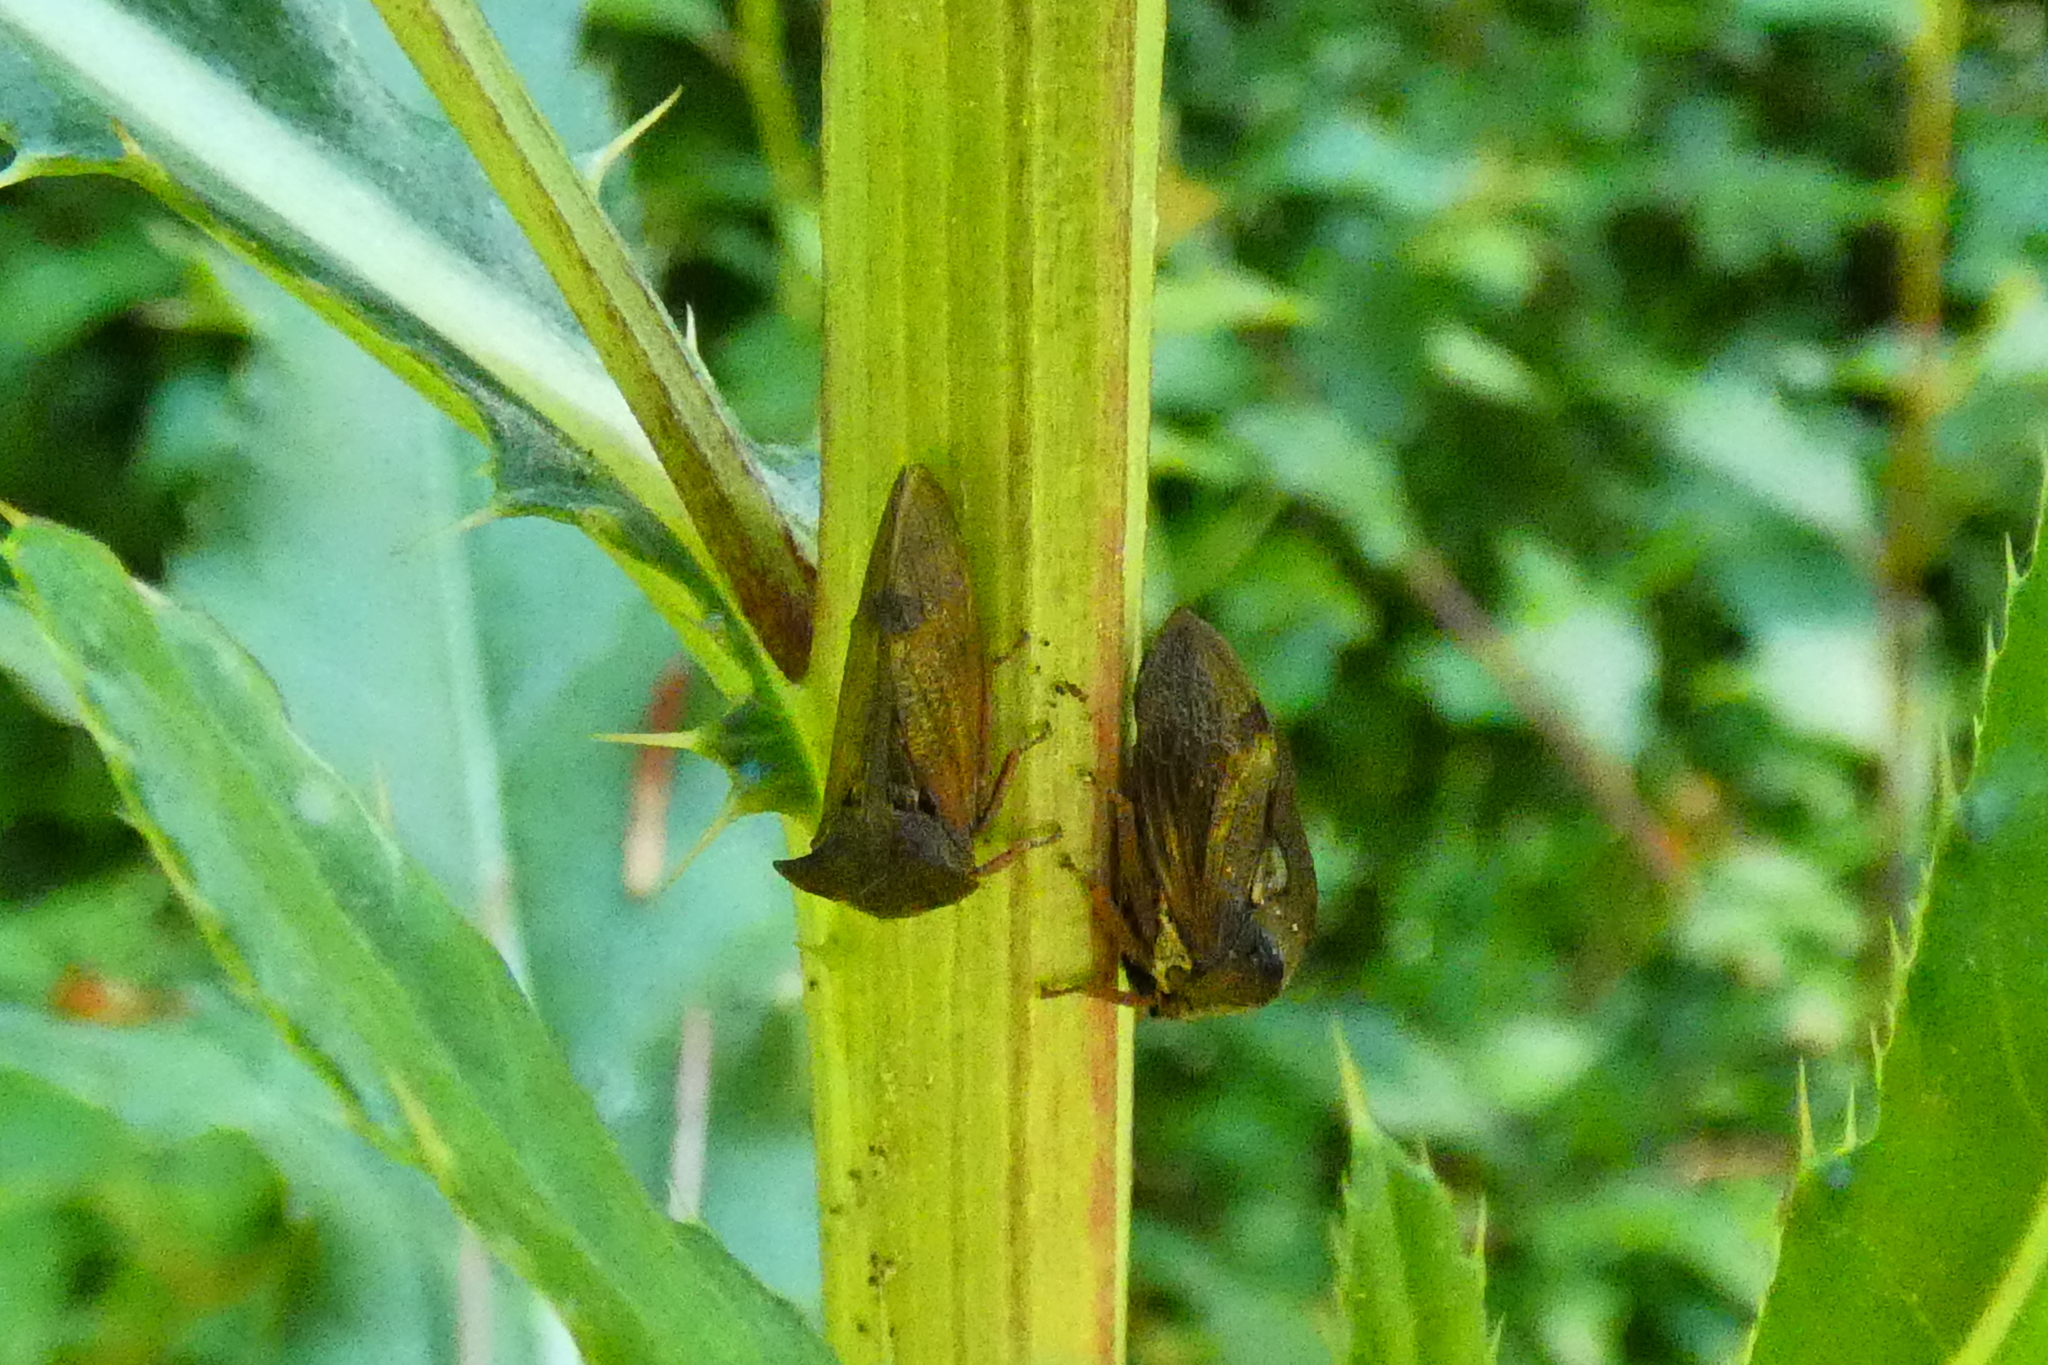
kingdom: Animalia
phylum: Arthropoda
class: Insecta
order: Hemiptera
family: Membracidae
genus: Centrotus
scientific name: Centrotus cornuta
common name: Treehopper
